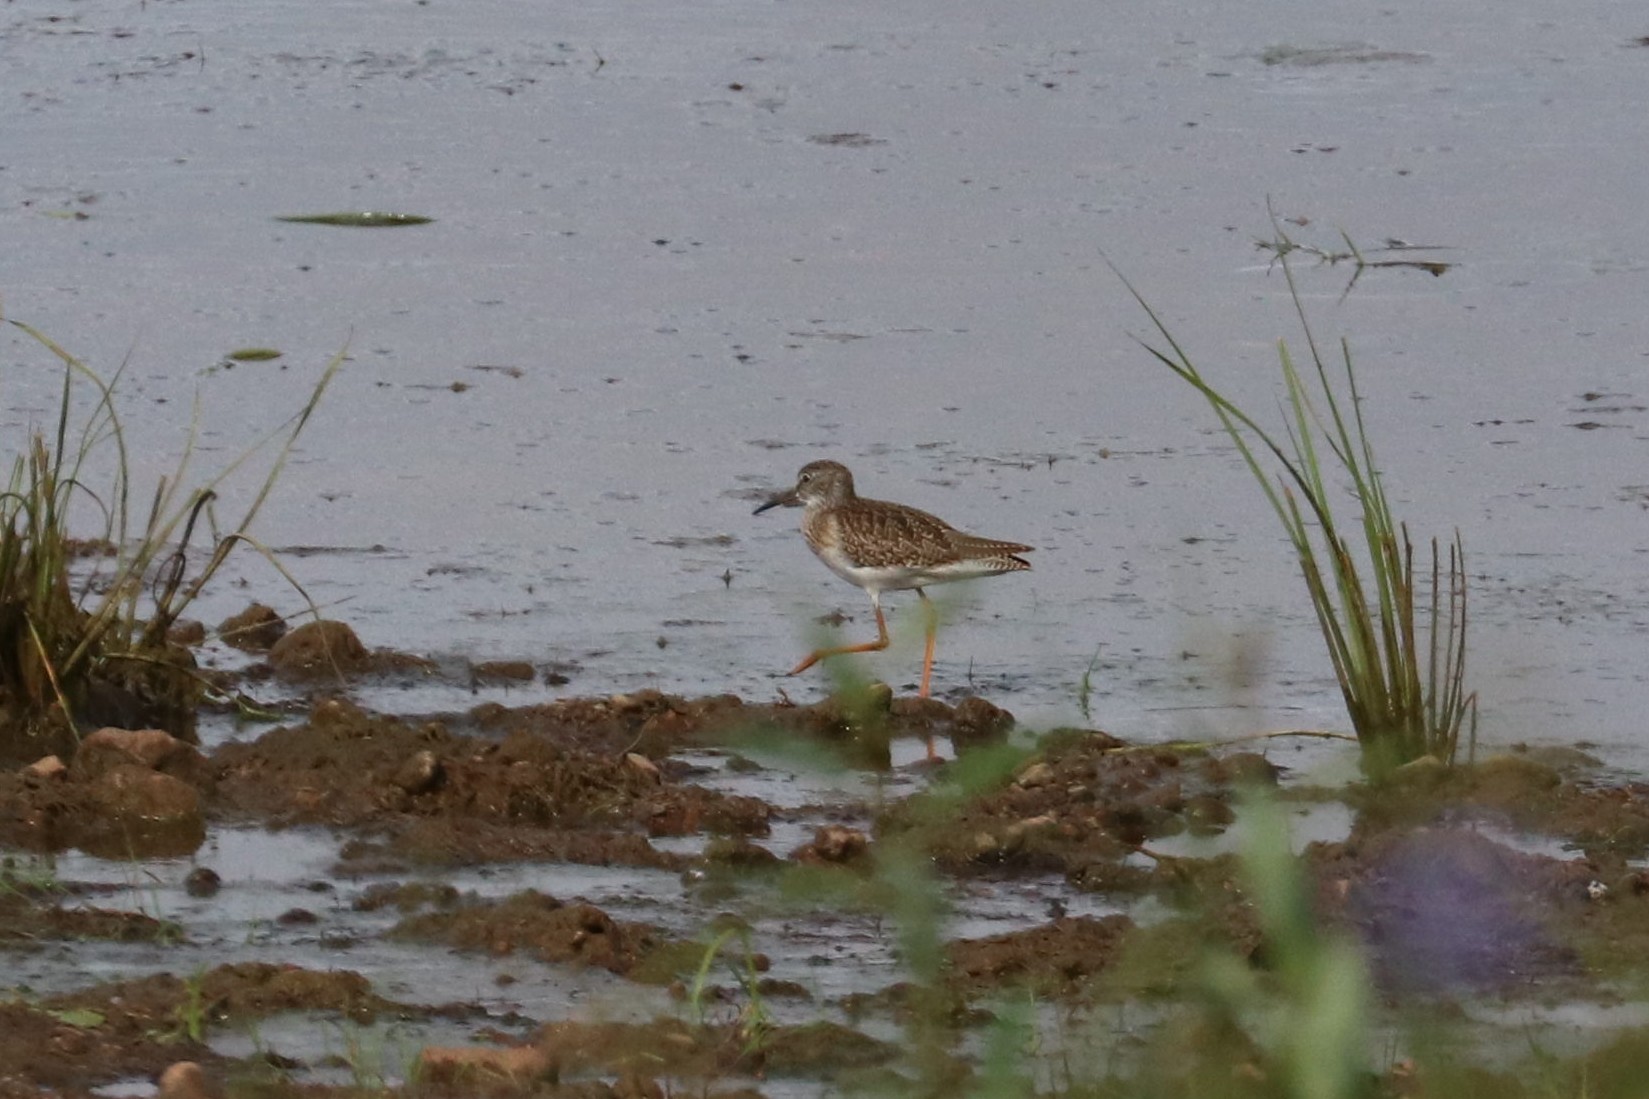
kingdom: Animalia
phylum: Chordata
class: Aves
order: Charadriiformes
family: Scolopacidae
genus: Tringa
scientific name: Tringa totanus
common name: Common redshank
